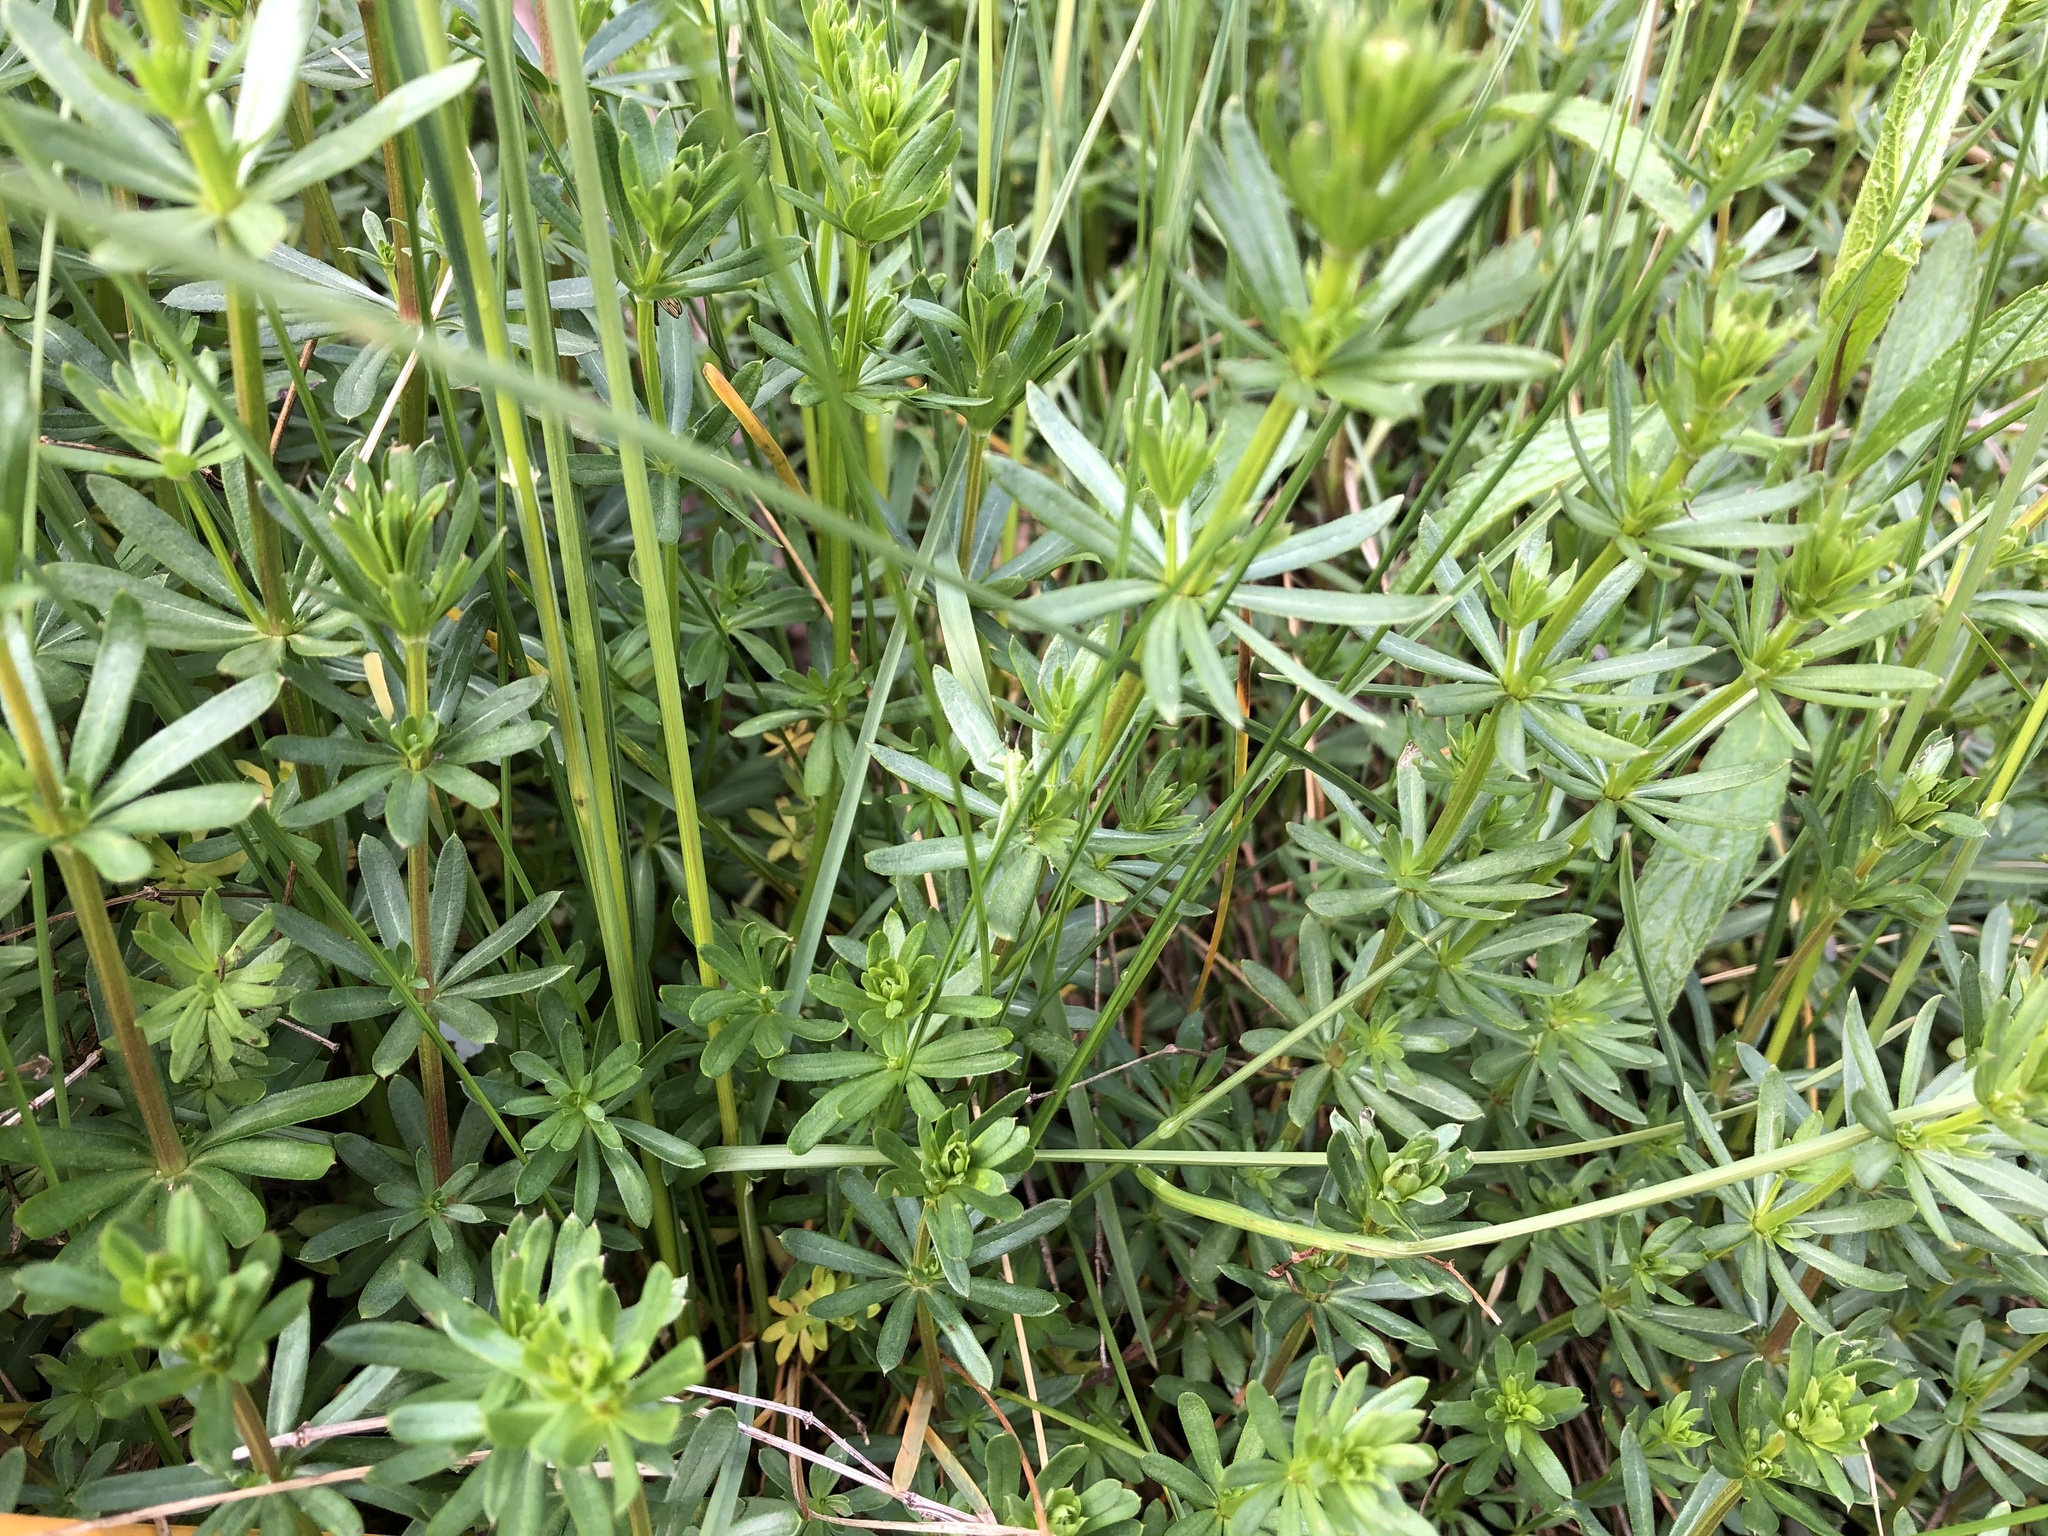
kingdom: Plantae
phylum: Tracheophyta
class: Magnoliopsida
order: Gentianales
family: Rubiaceae
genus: Galium
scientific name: Galium album
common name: White bedstraw
